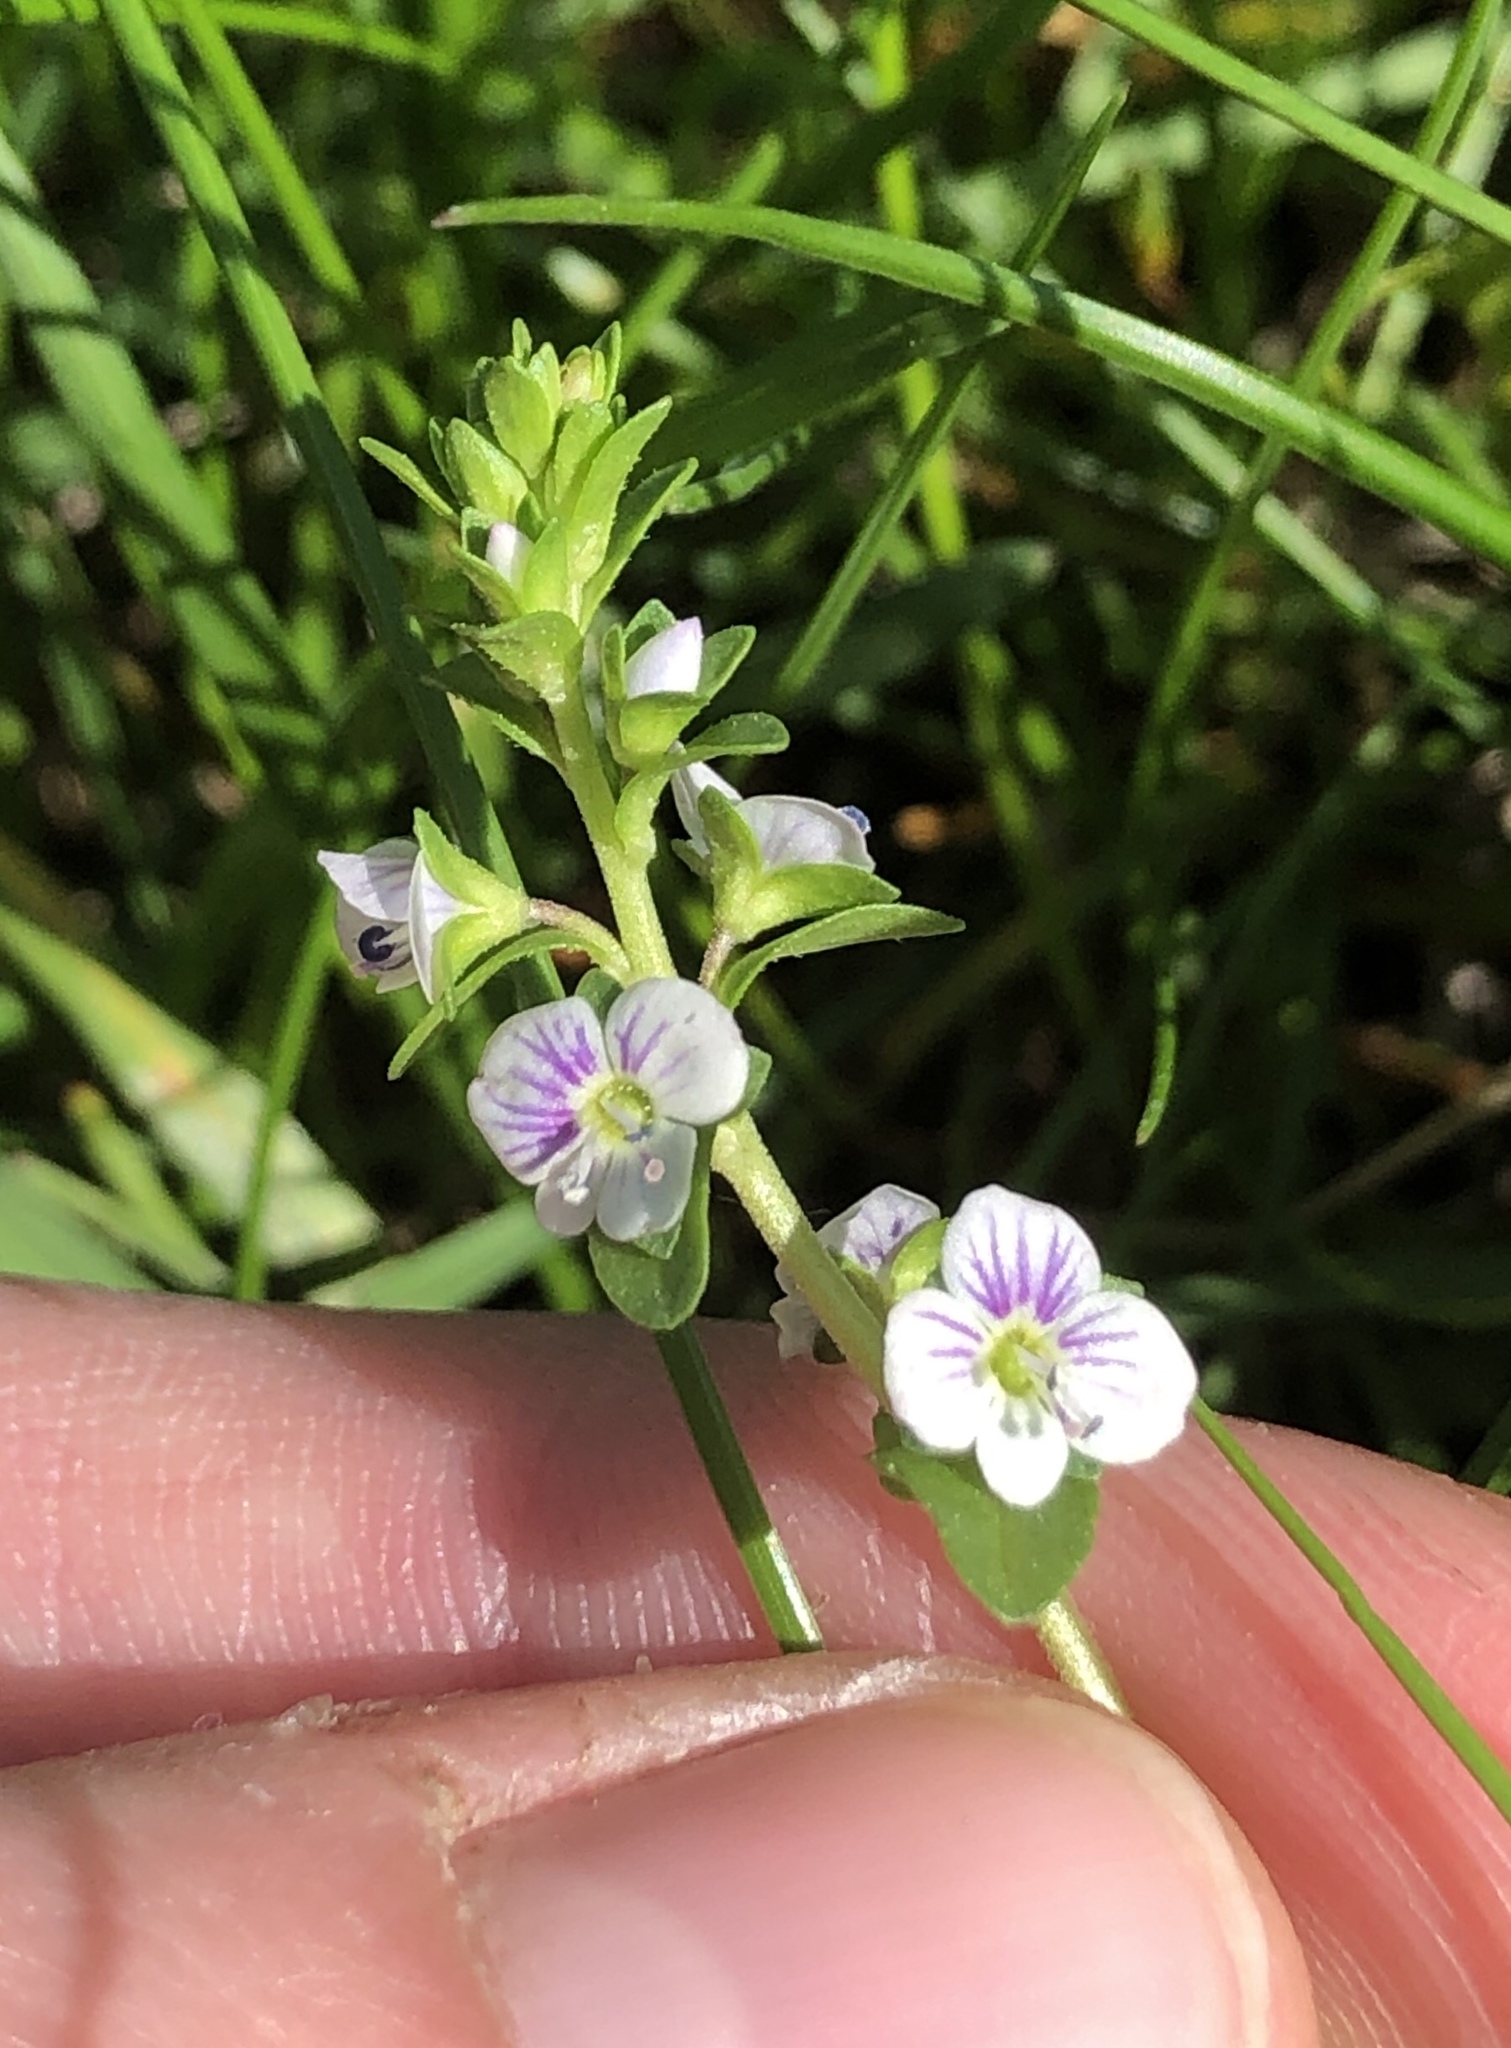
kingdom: Plantae
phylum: Tracheophyta
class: Magnoliopsida
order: Lamiales
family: Plantaginaceae
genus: Veronica
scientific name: Veronica serpyllifolia
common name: Thyme-leaved speedwell
